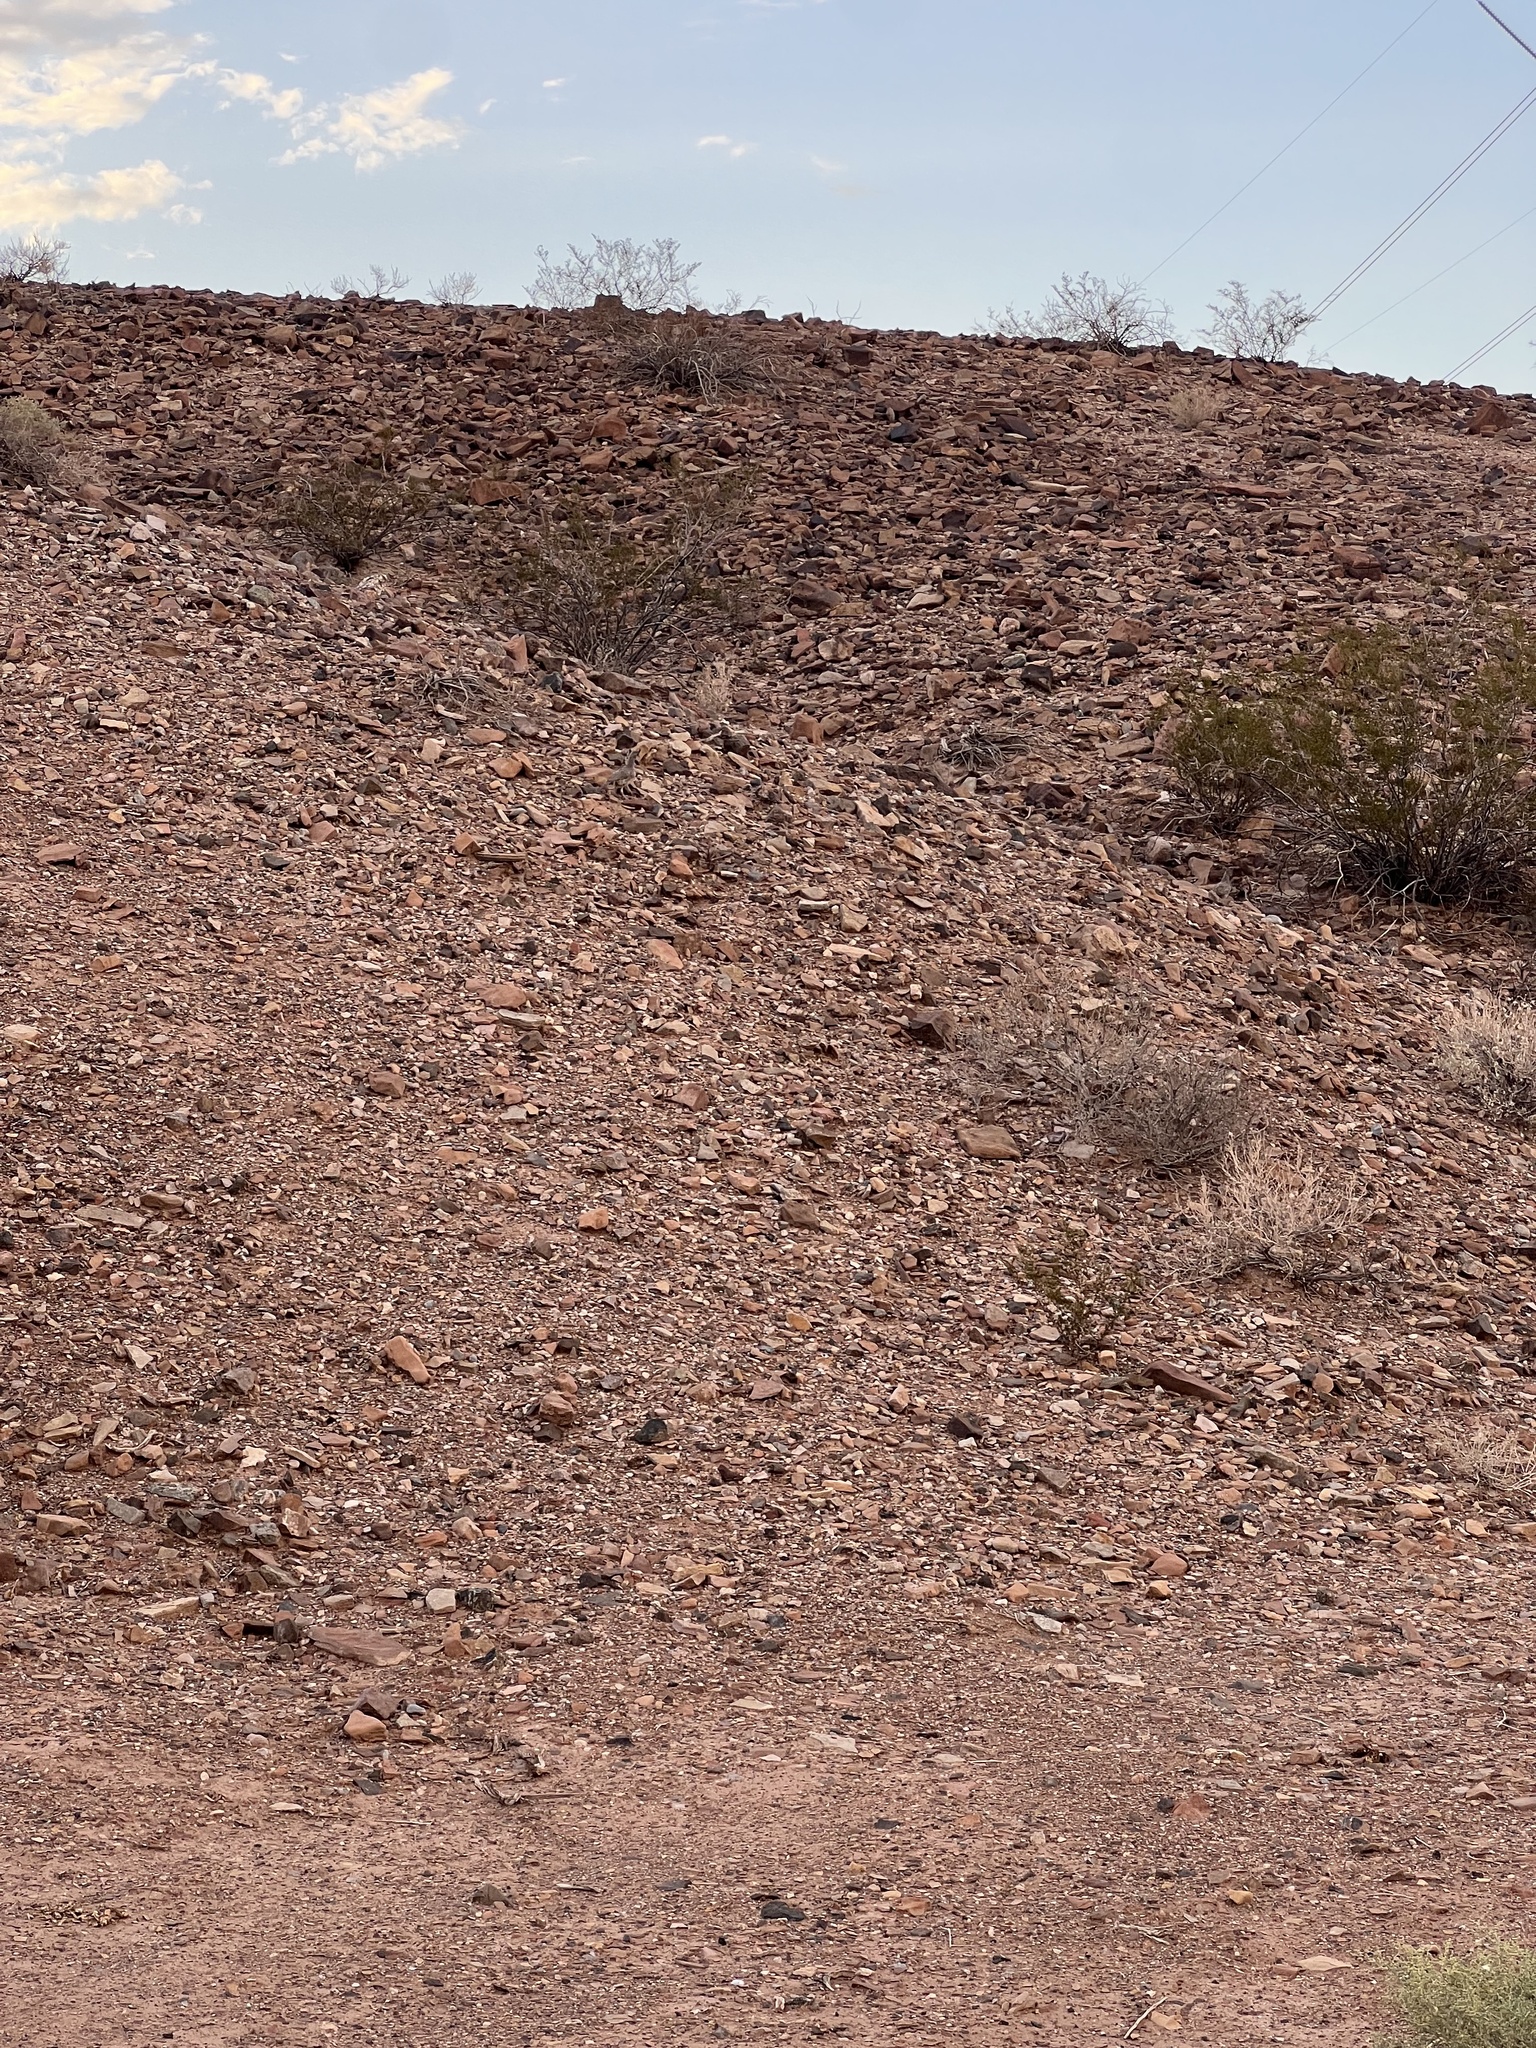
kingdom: Animalia
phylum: Chordata
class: Aves
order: Galliformes
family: Odontophoridae
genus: Callipepla
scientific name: Callipepla gambelii
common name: Gambel's quail
